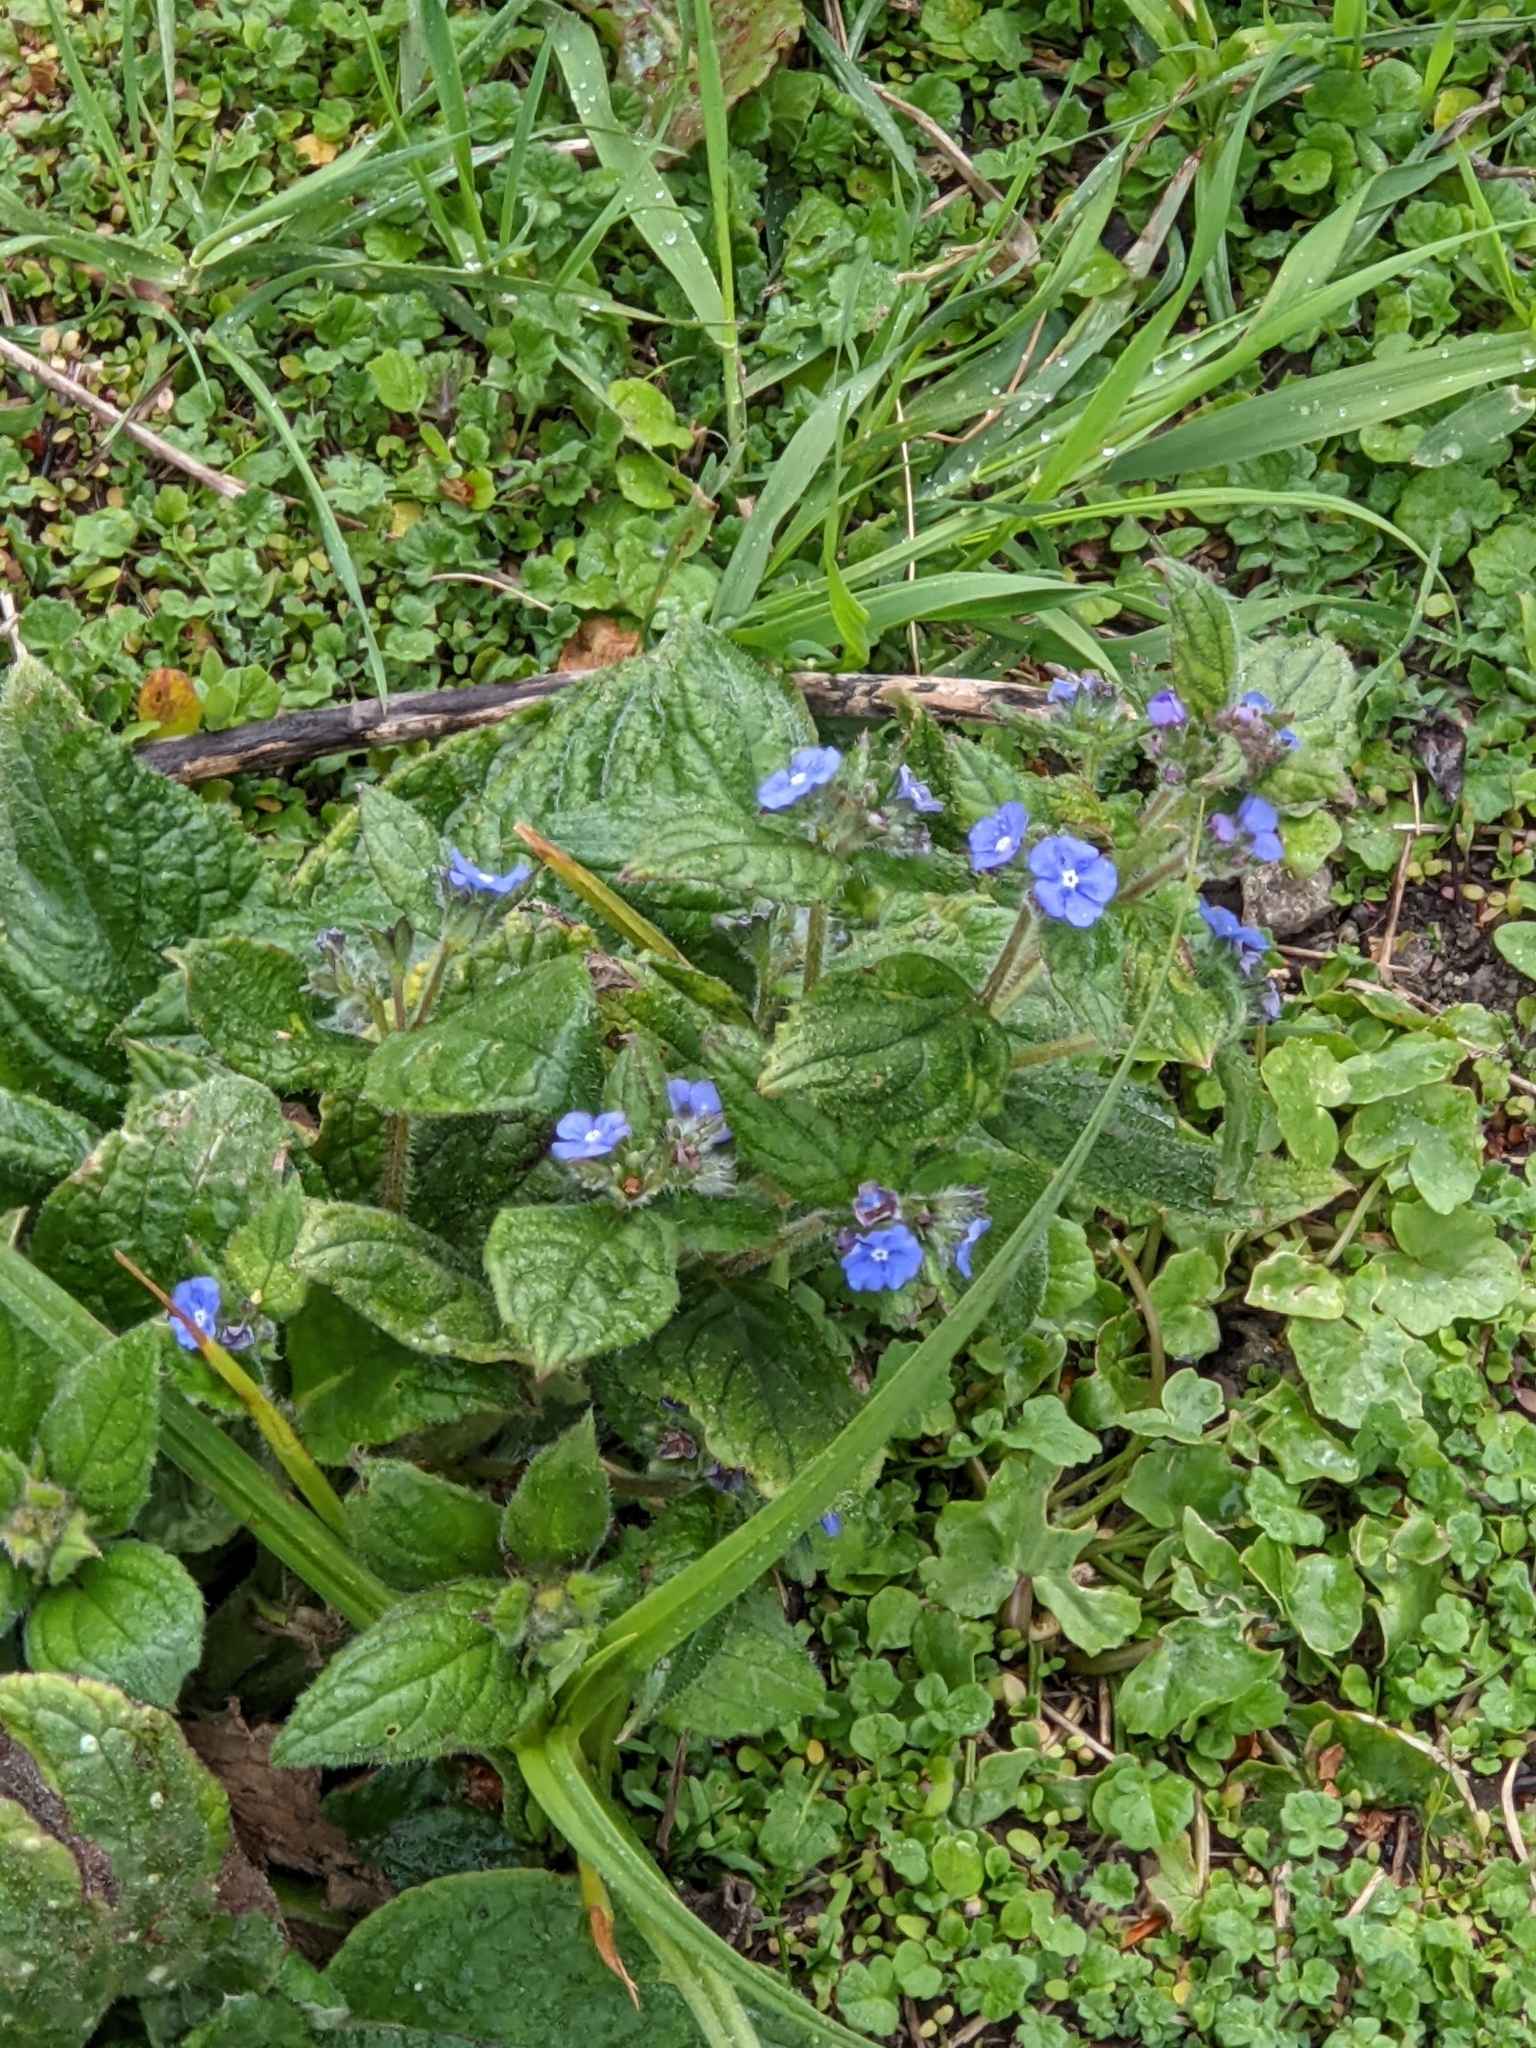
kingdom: Plantae
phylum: Tracheophyta
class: Magnoliopsida
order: Boraginales
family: Boraginaceae
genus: Pentaglottis
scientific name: Pentaglottis sempervirens
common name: Green alkanet
